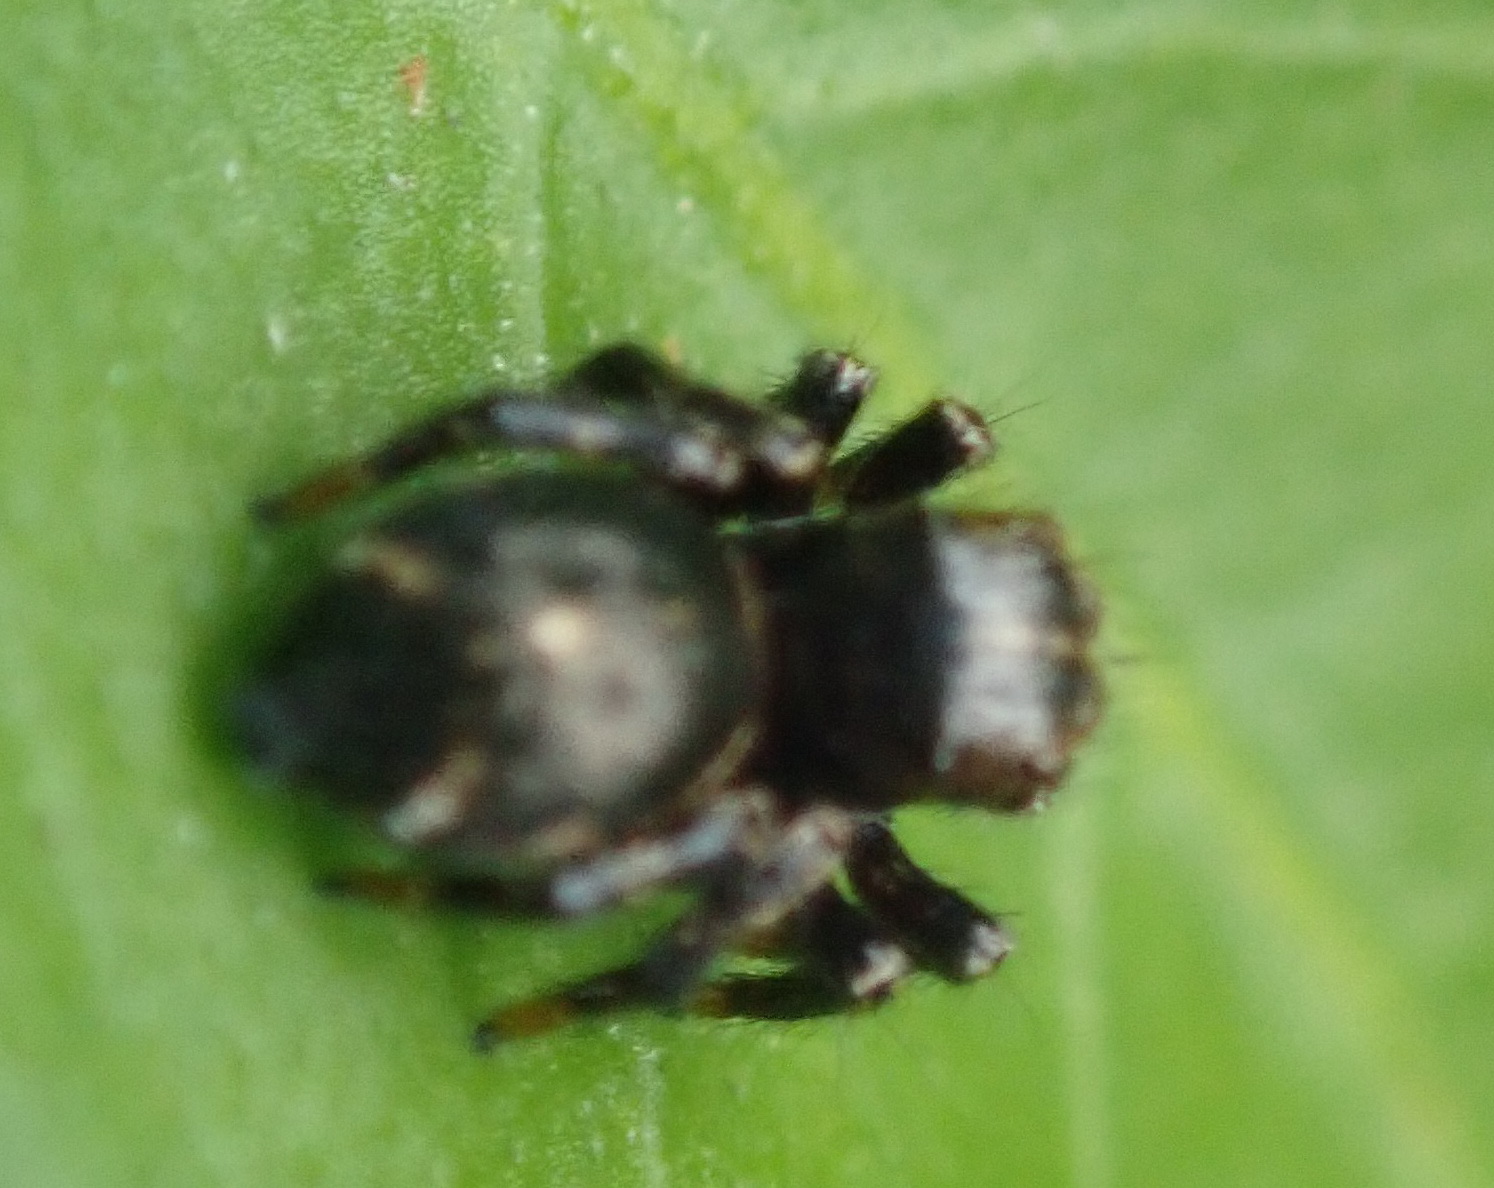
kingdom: Animalia
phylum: Arthropoda
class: Arachnida
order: Araneae
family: Salticidae
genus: Baryphas
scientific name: Baryphas ahenus
